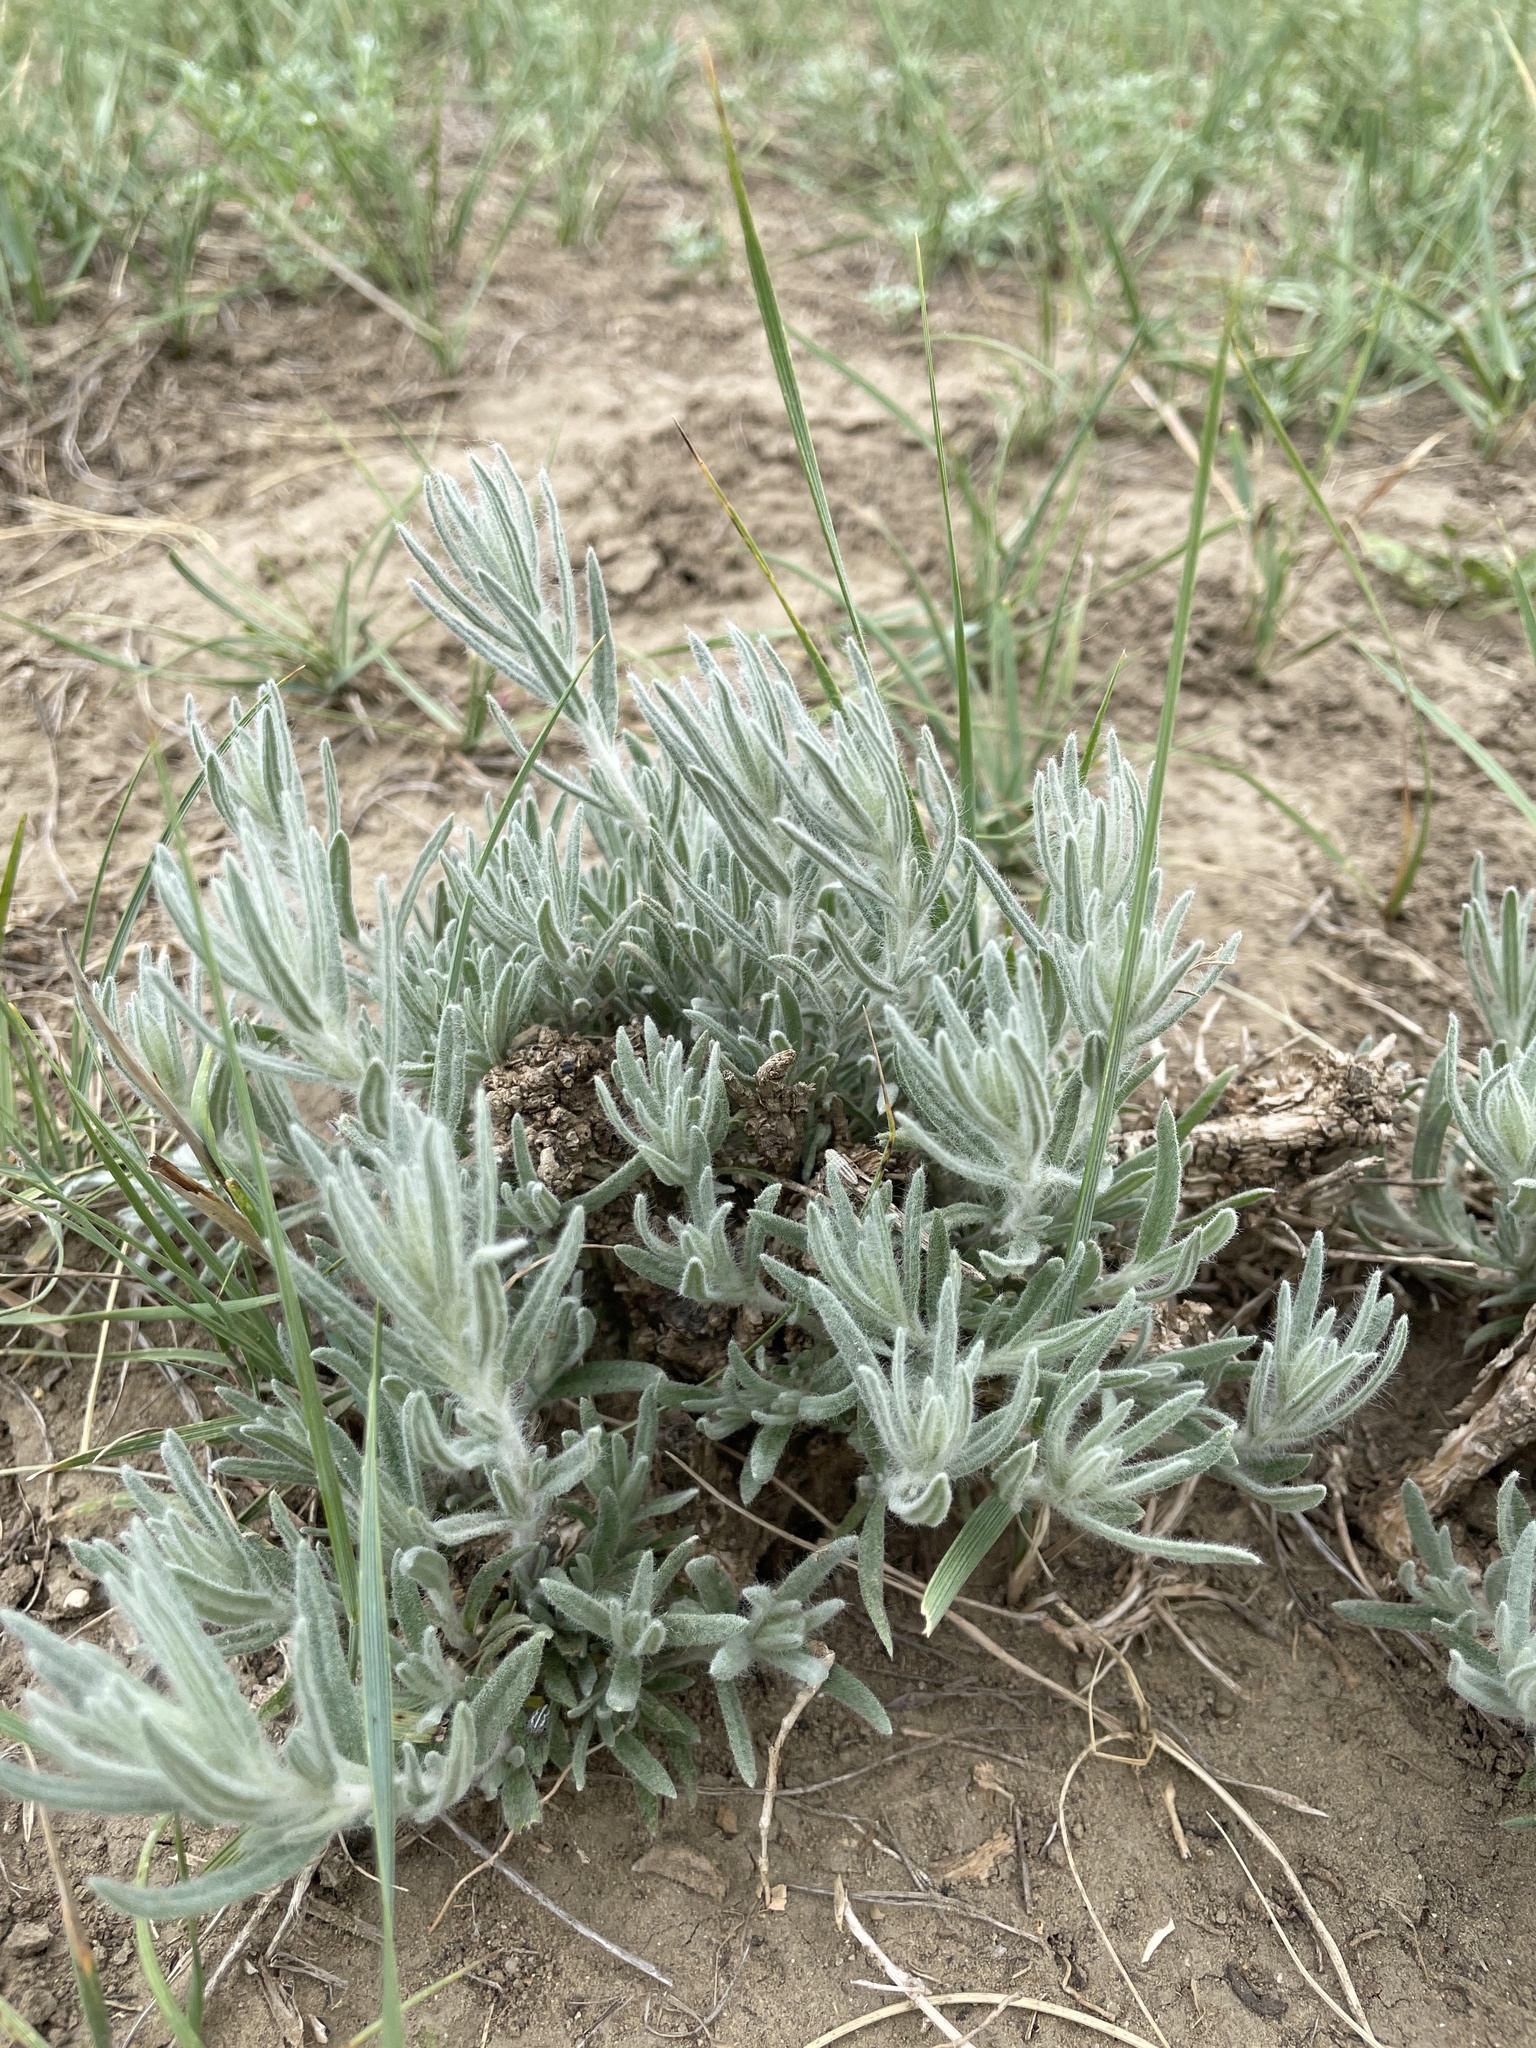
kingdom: Plantae
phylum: Tracheophyta
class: Magnoliopsida
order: Caryophyllales
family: Amaranthaceae
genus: Krascheninnikovia
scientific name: Krascheninnikovia lanata
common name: Winterfat
